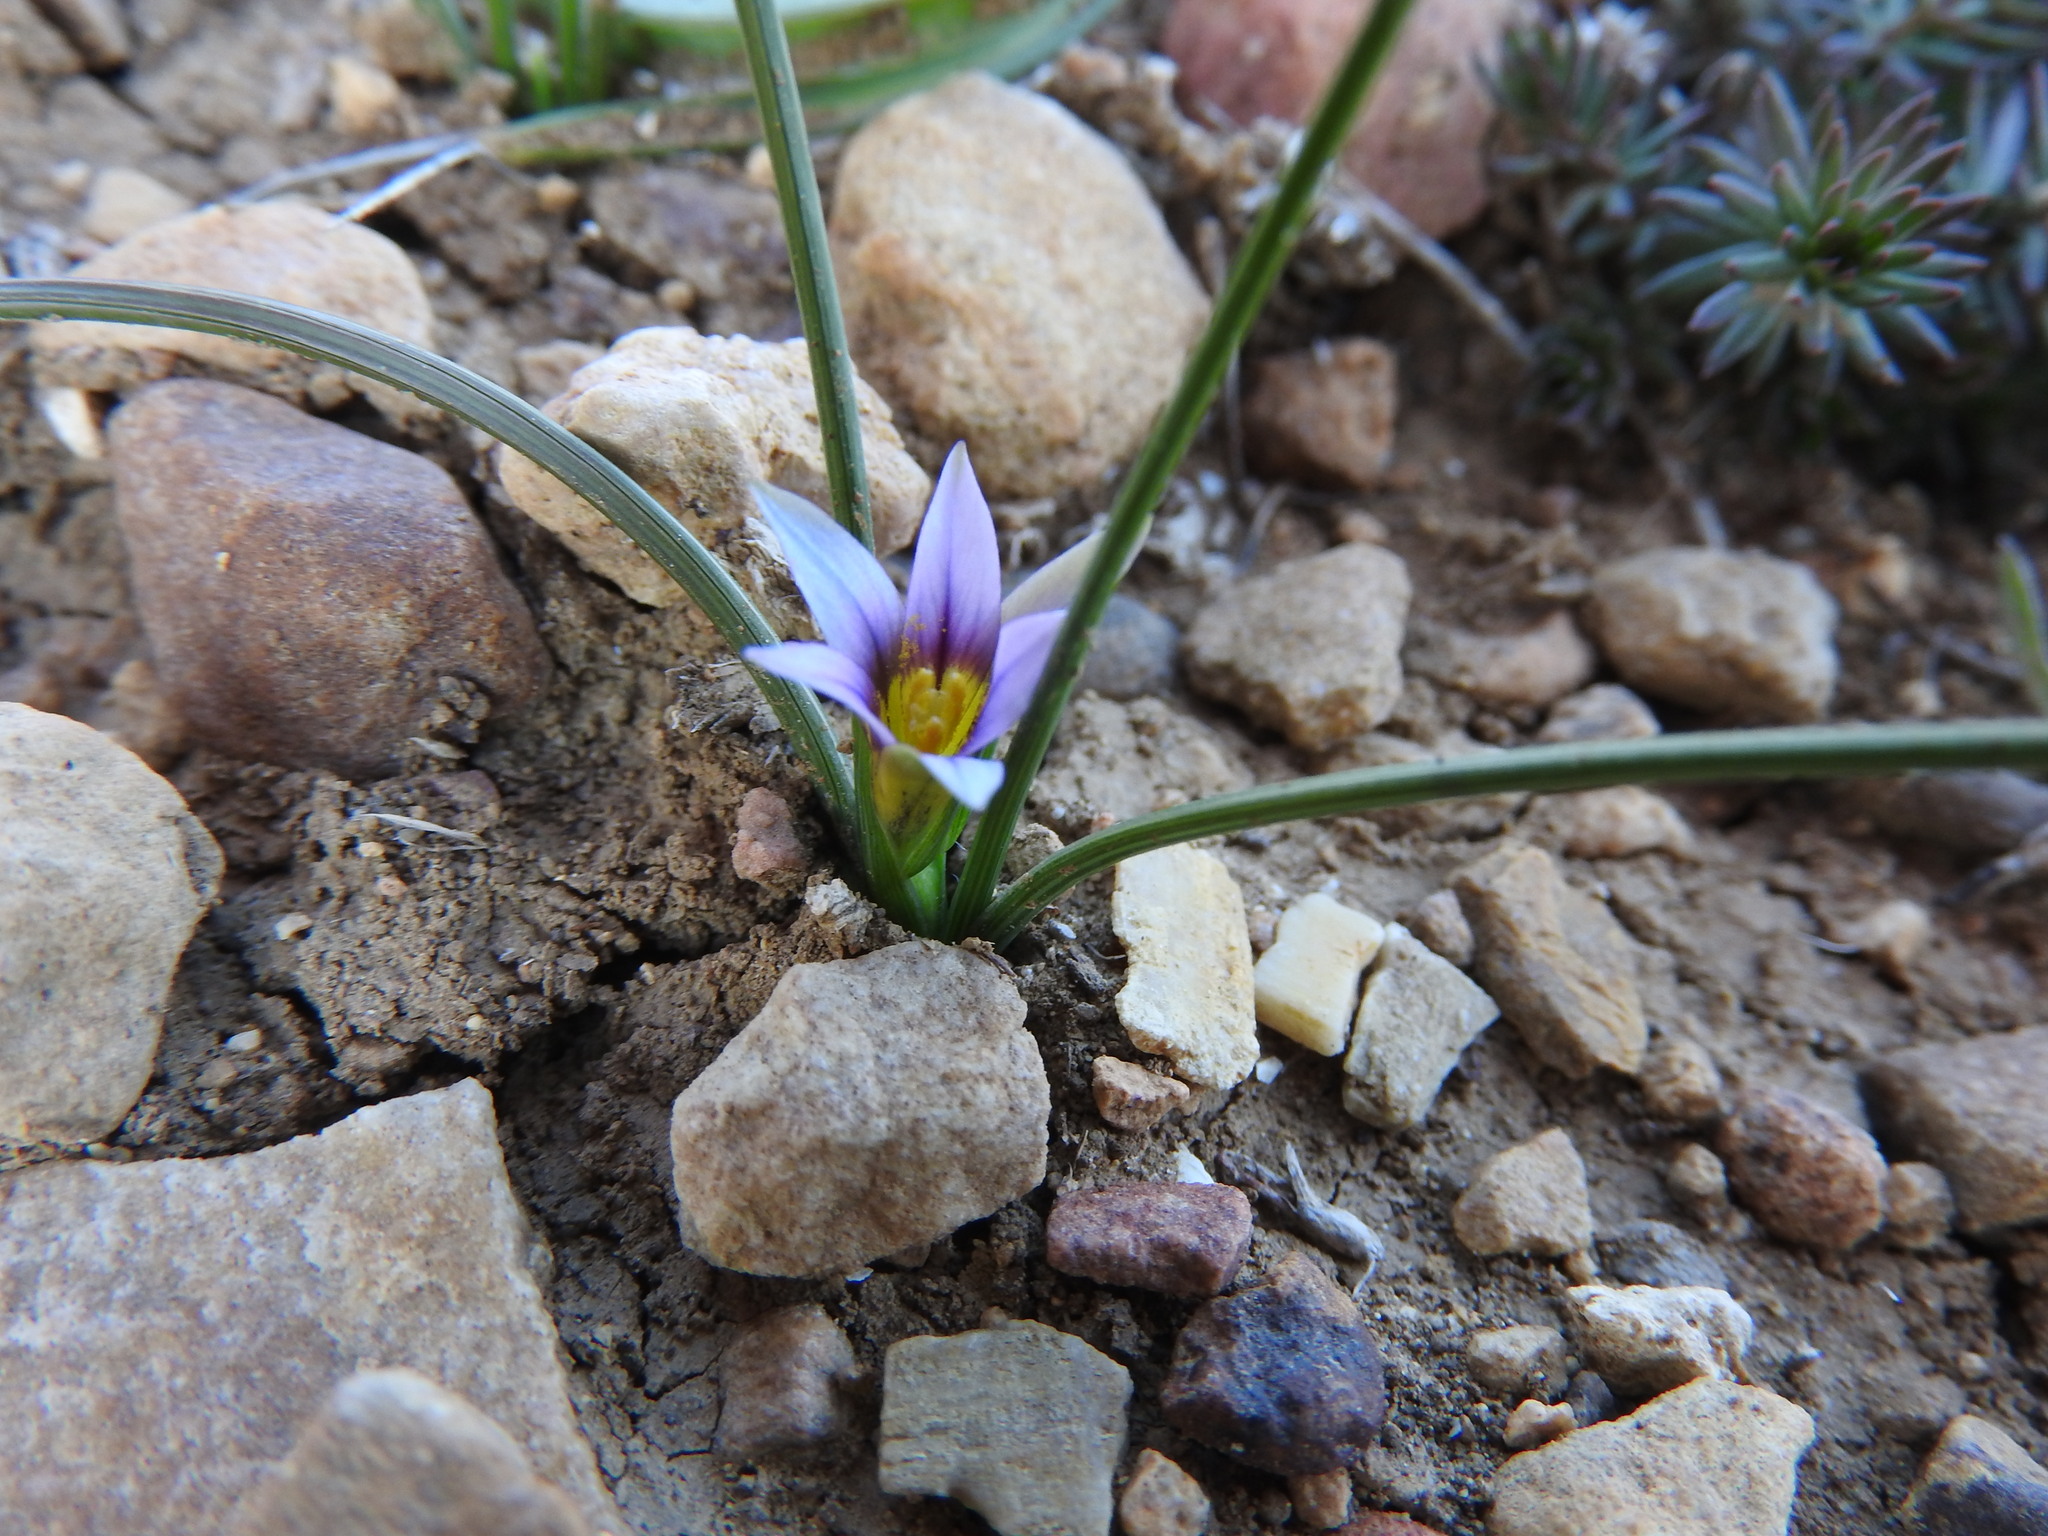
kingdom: Plantae
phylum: Tracheophyta
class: Liliopsida
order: Asparagales
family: Iridaceae
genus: Romulea
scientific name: Romulea ramiflora
